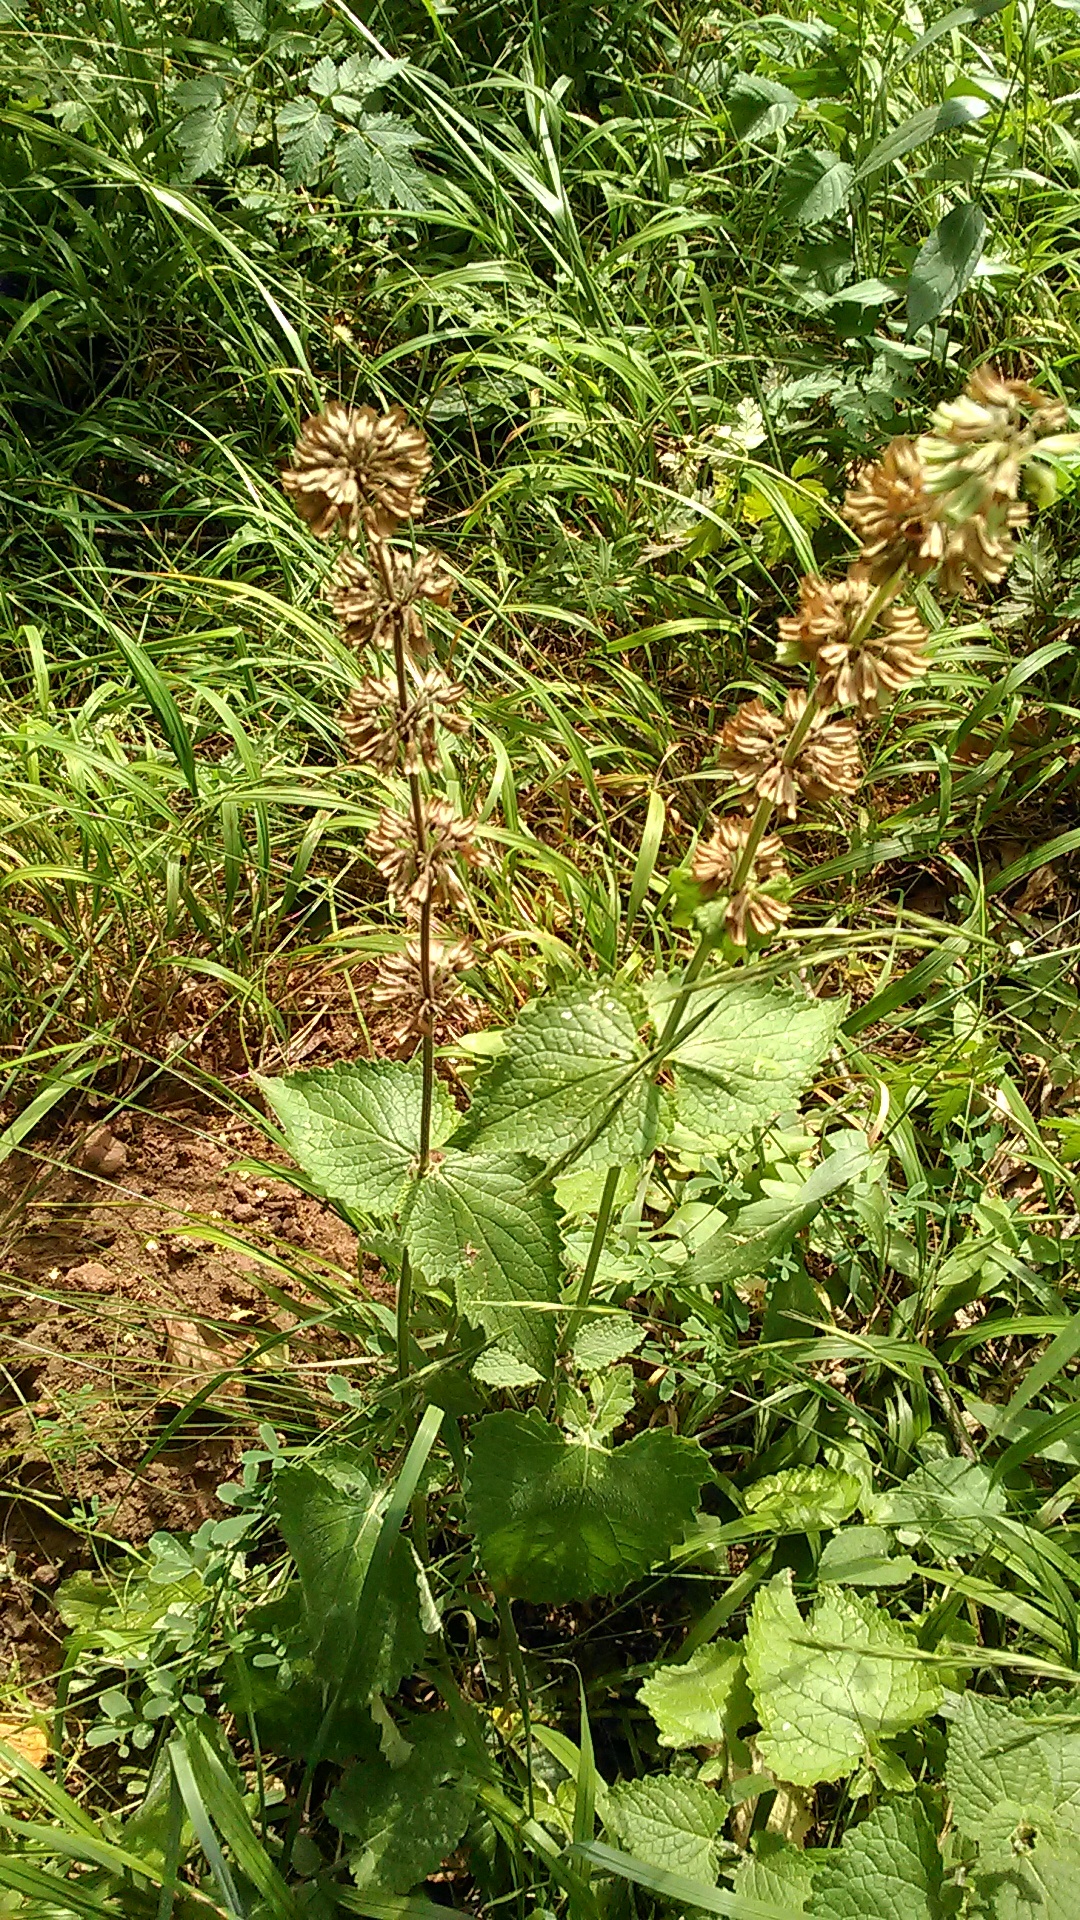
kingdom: Plantae
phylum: Tracheophyta
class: Magnoliopsida
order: Lamiales
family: Lamiaceae
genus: Salvia
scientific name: Salvia verticillata
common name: Whorled clary
